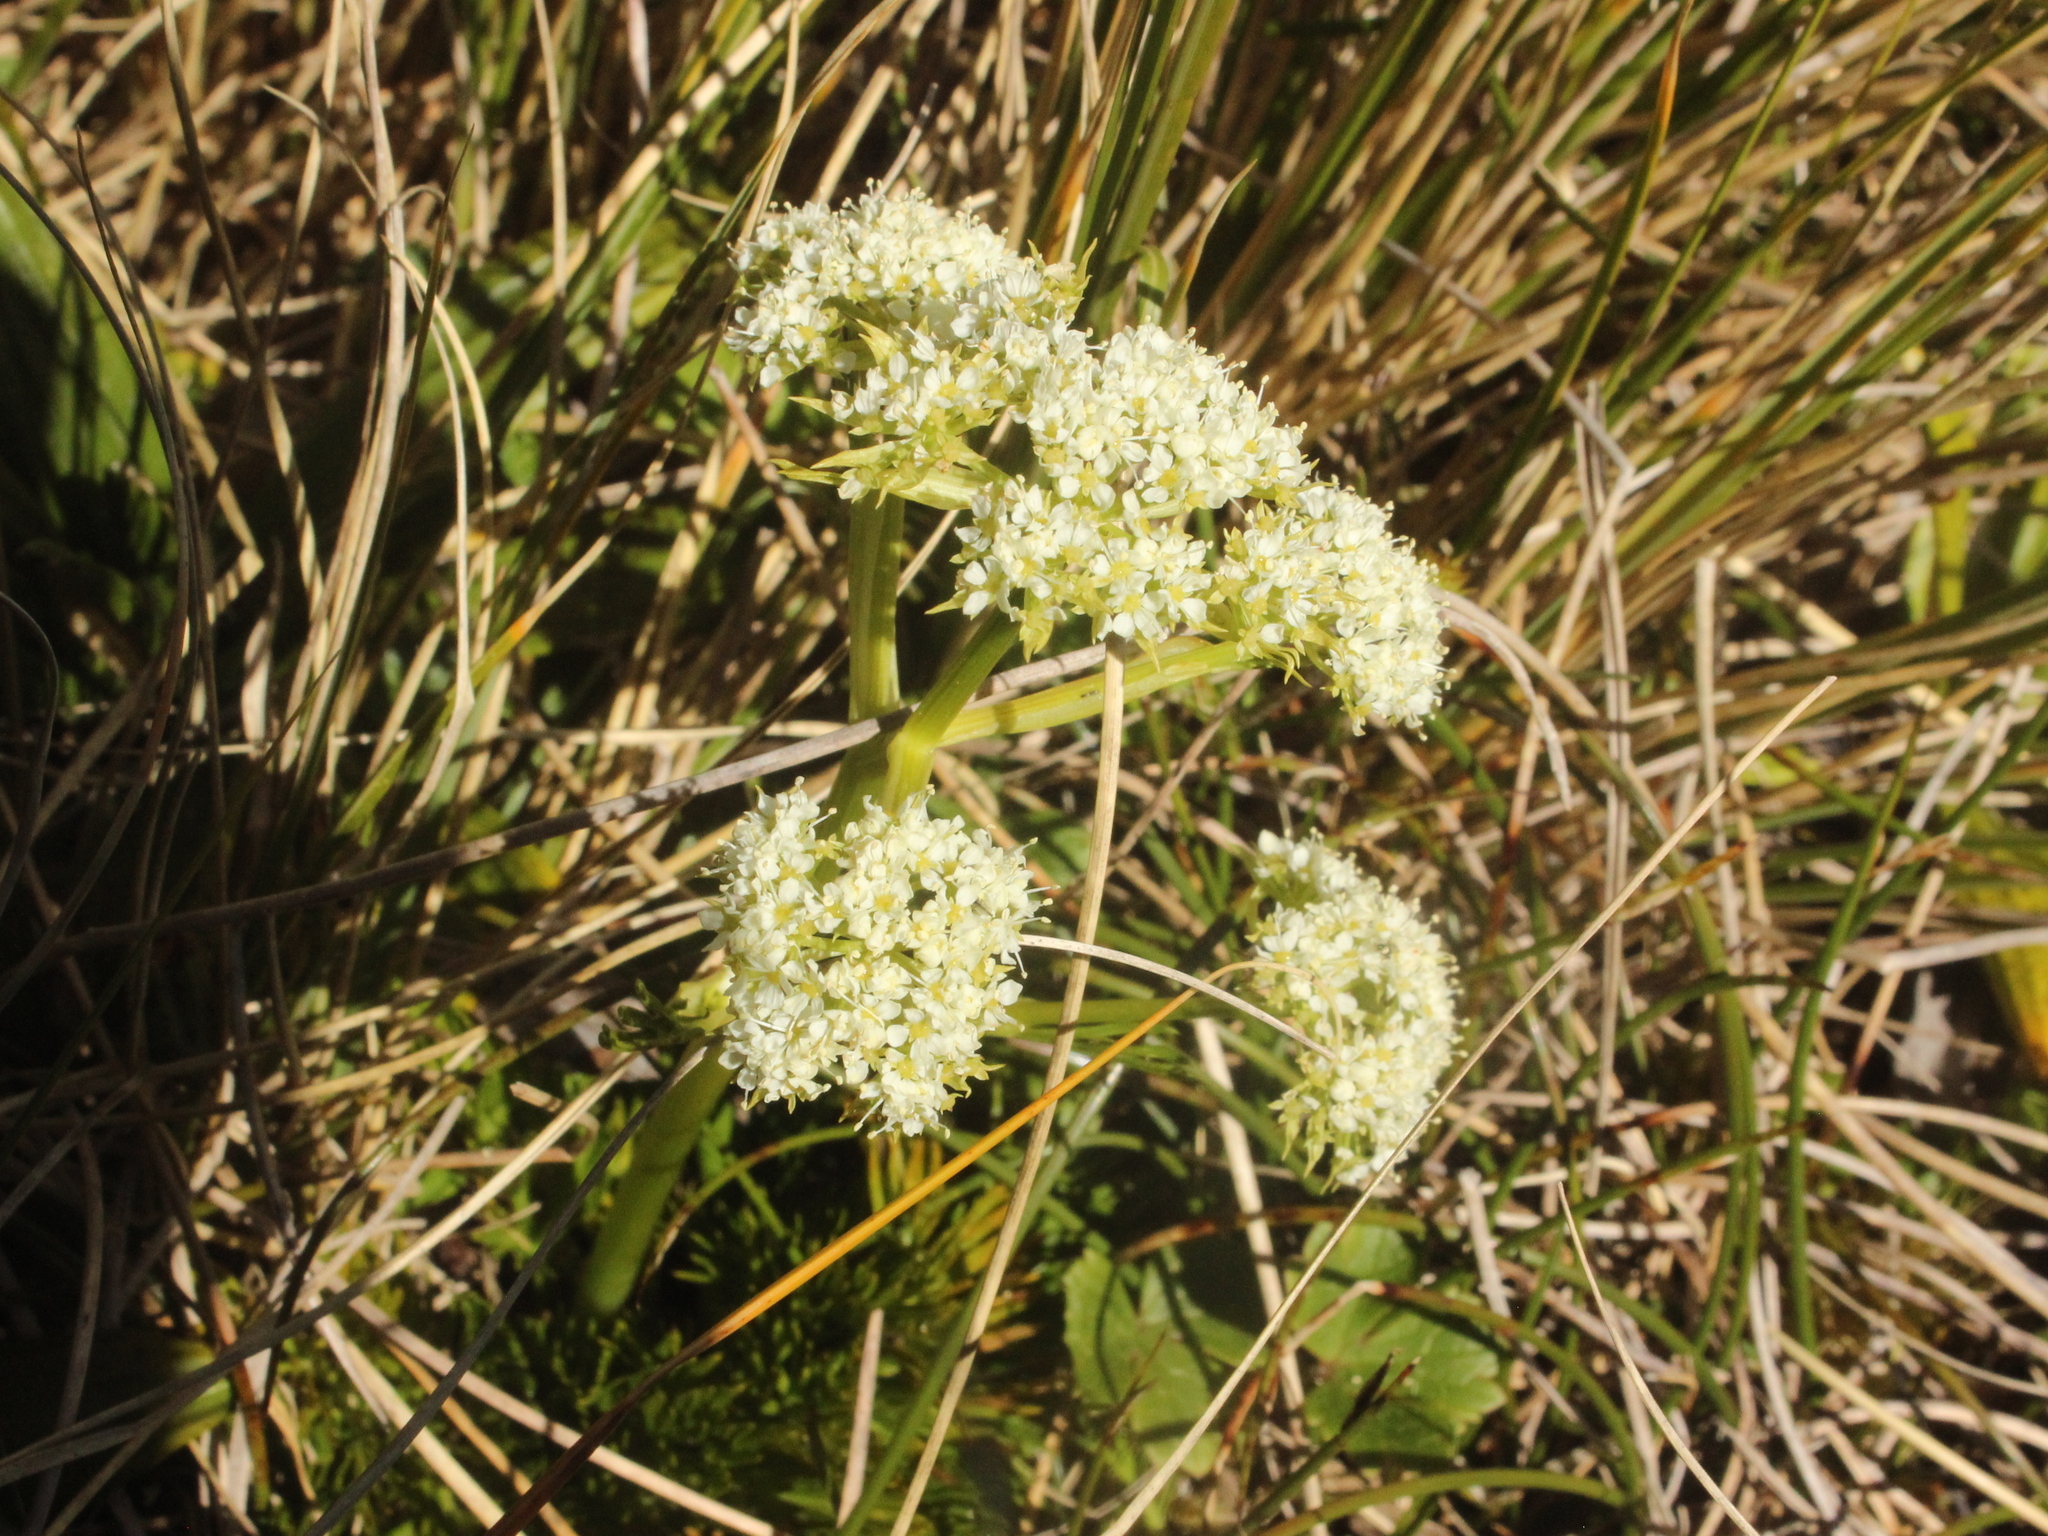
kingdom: Plantae
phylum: Tracheophyta
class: Magnoliopsida
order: Apiales
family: Apiaceae
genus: Aciphylla
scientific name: Aciphylla dissecta
